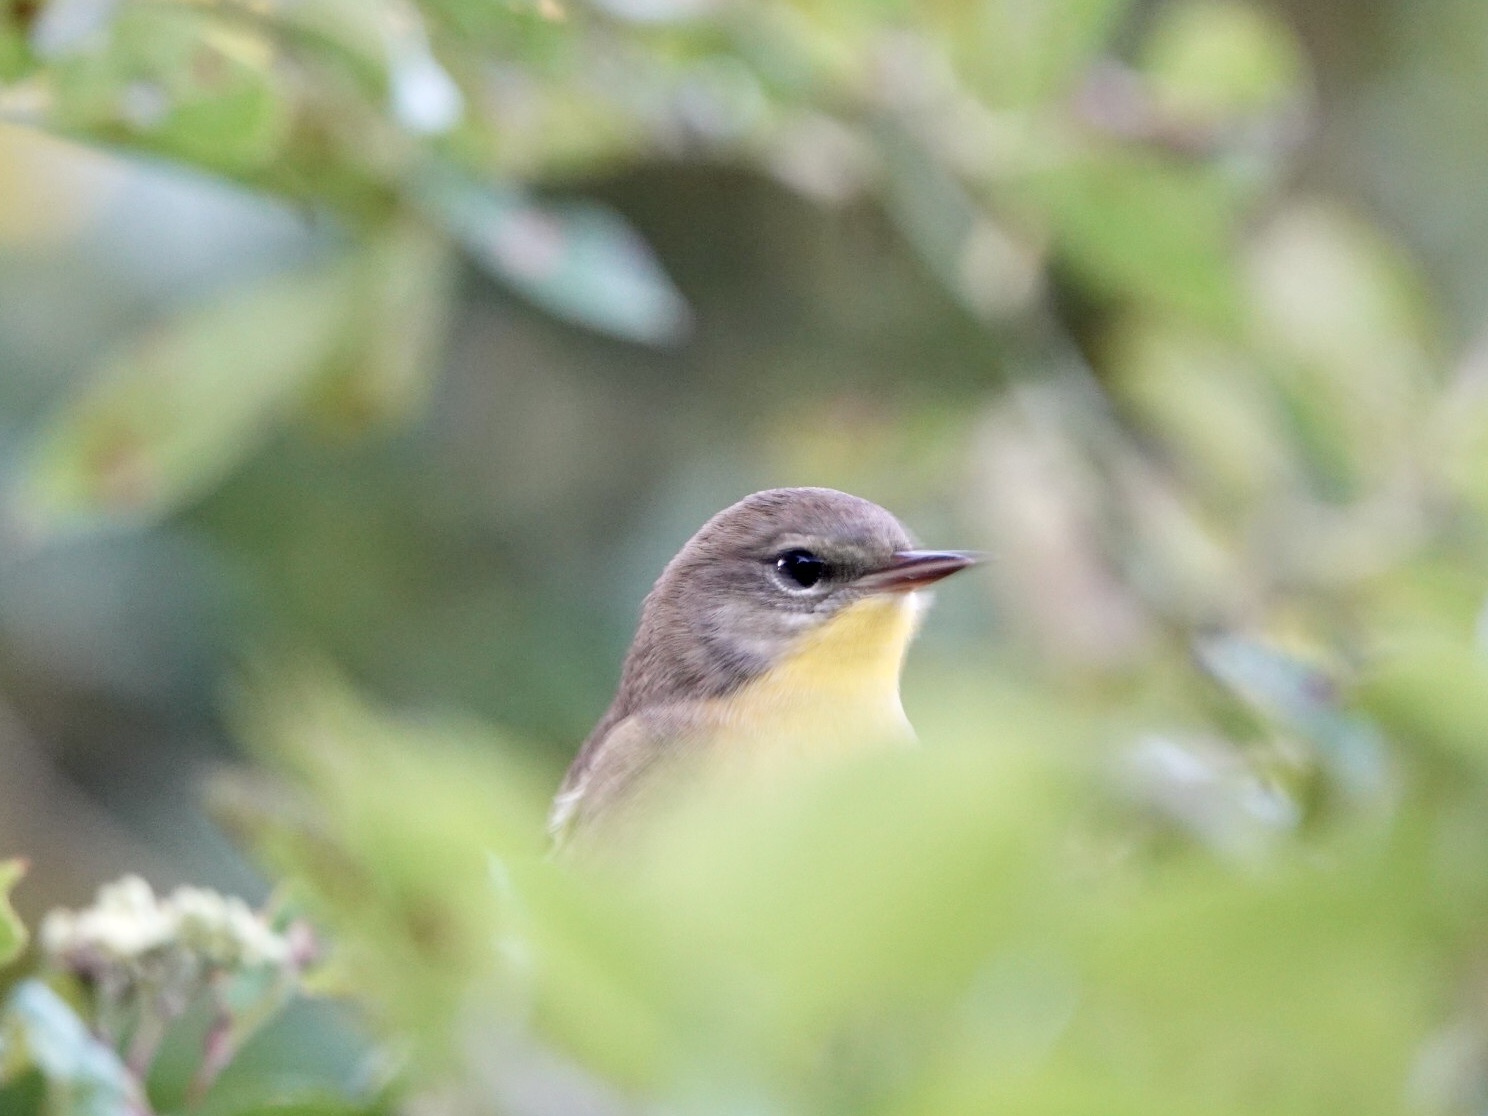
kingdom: Animalia
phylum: Chordata
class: Aves
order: Passeriformes
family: Parulidae
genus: Geothlypis
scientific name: Geothlypis trichas
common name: Common yellowthroat
